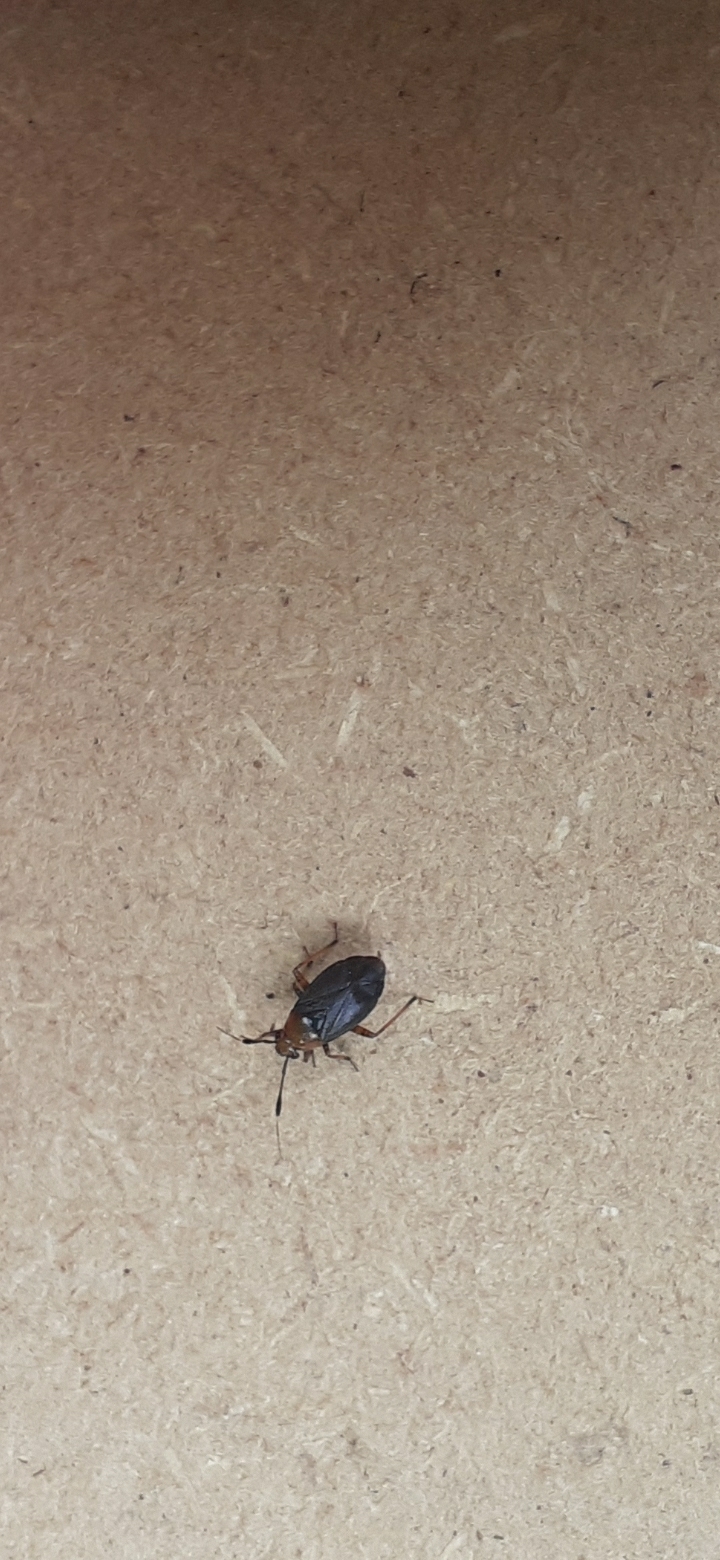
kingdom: Animalia
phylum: Arthropoda
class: Insecta
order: Hemiptera
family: Miridae
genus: Capsus
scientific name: Capsus ater
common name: Black plant bug
